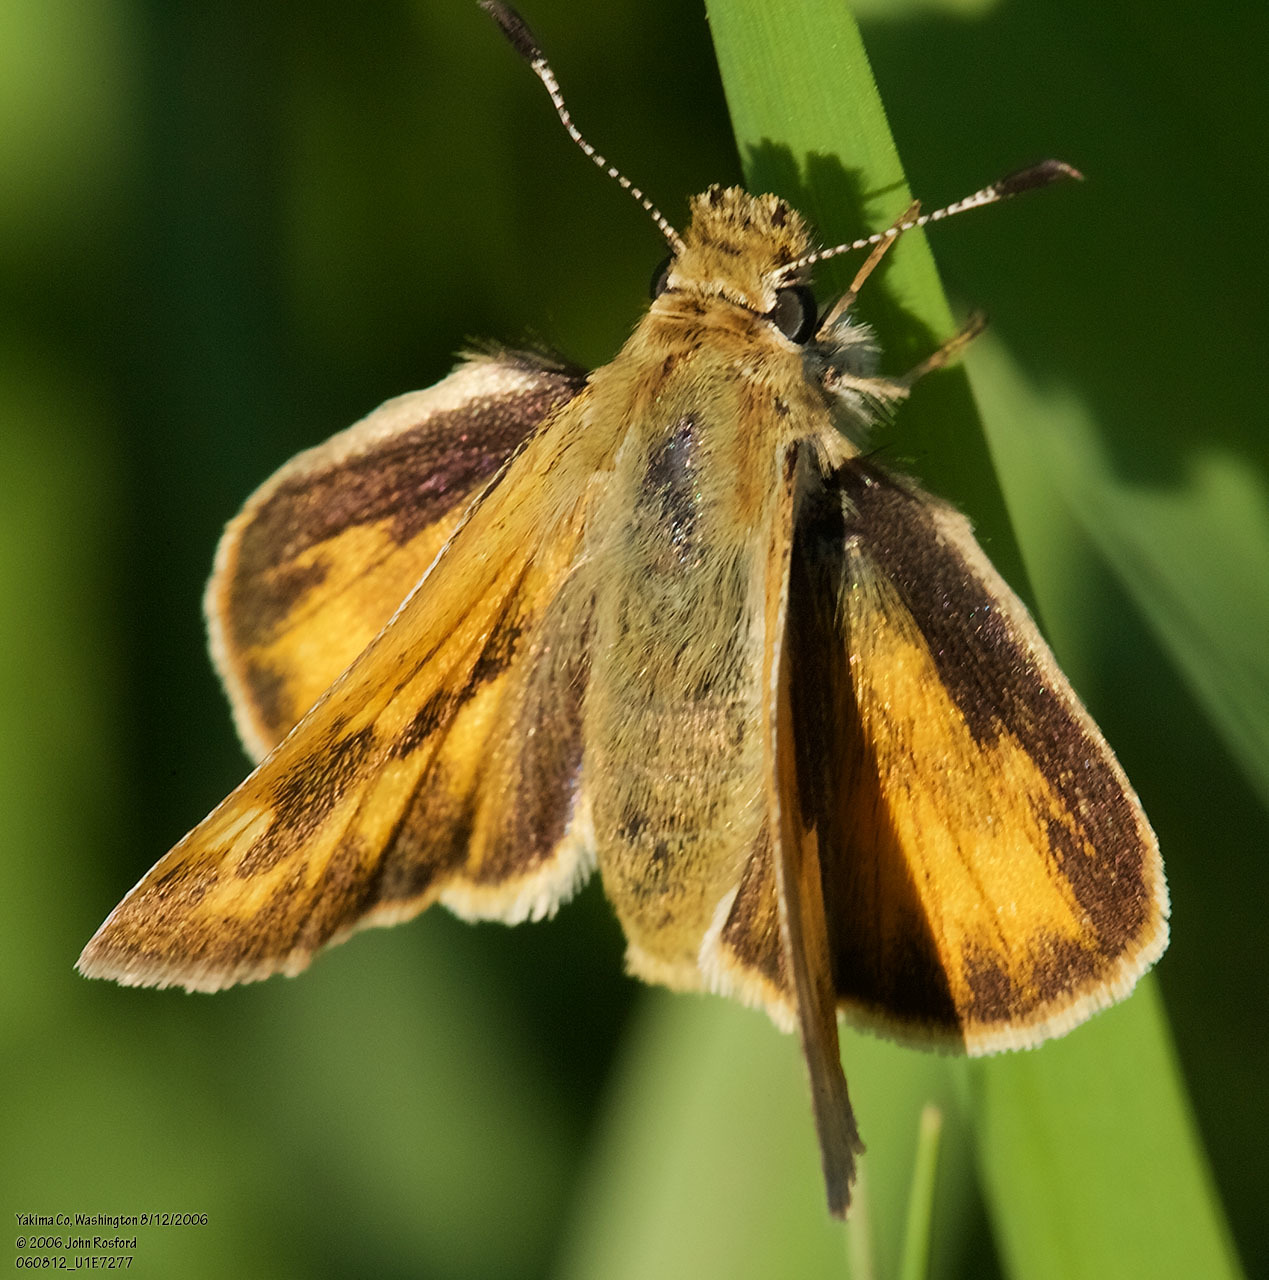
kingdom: Animalia
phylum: Arthropoda
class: Insecta
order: Lepidoptera
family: Hesperiidae
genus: Ochlodes
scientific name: Ochlodes sylvanoides
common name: Woodland skipper
